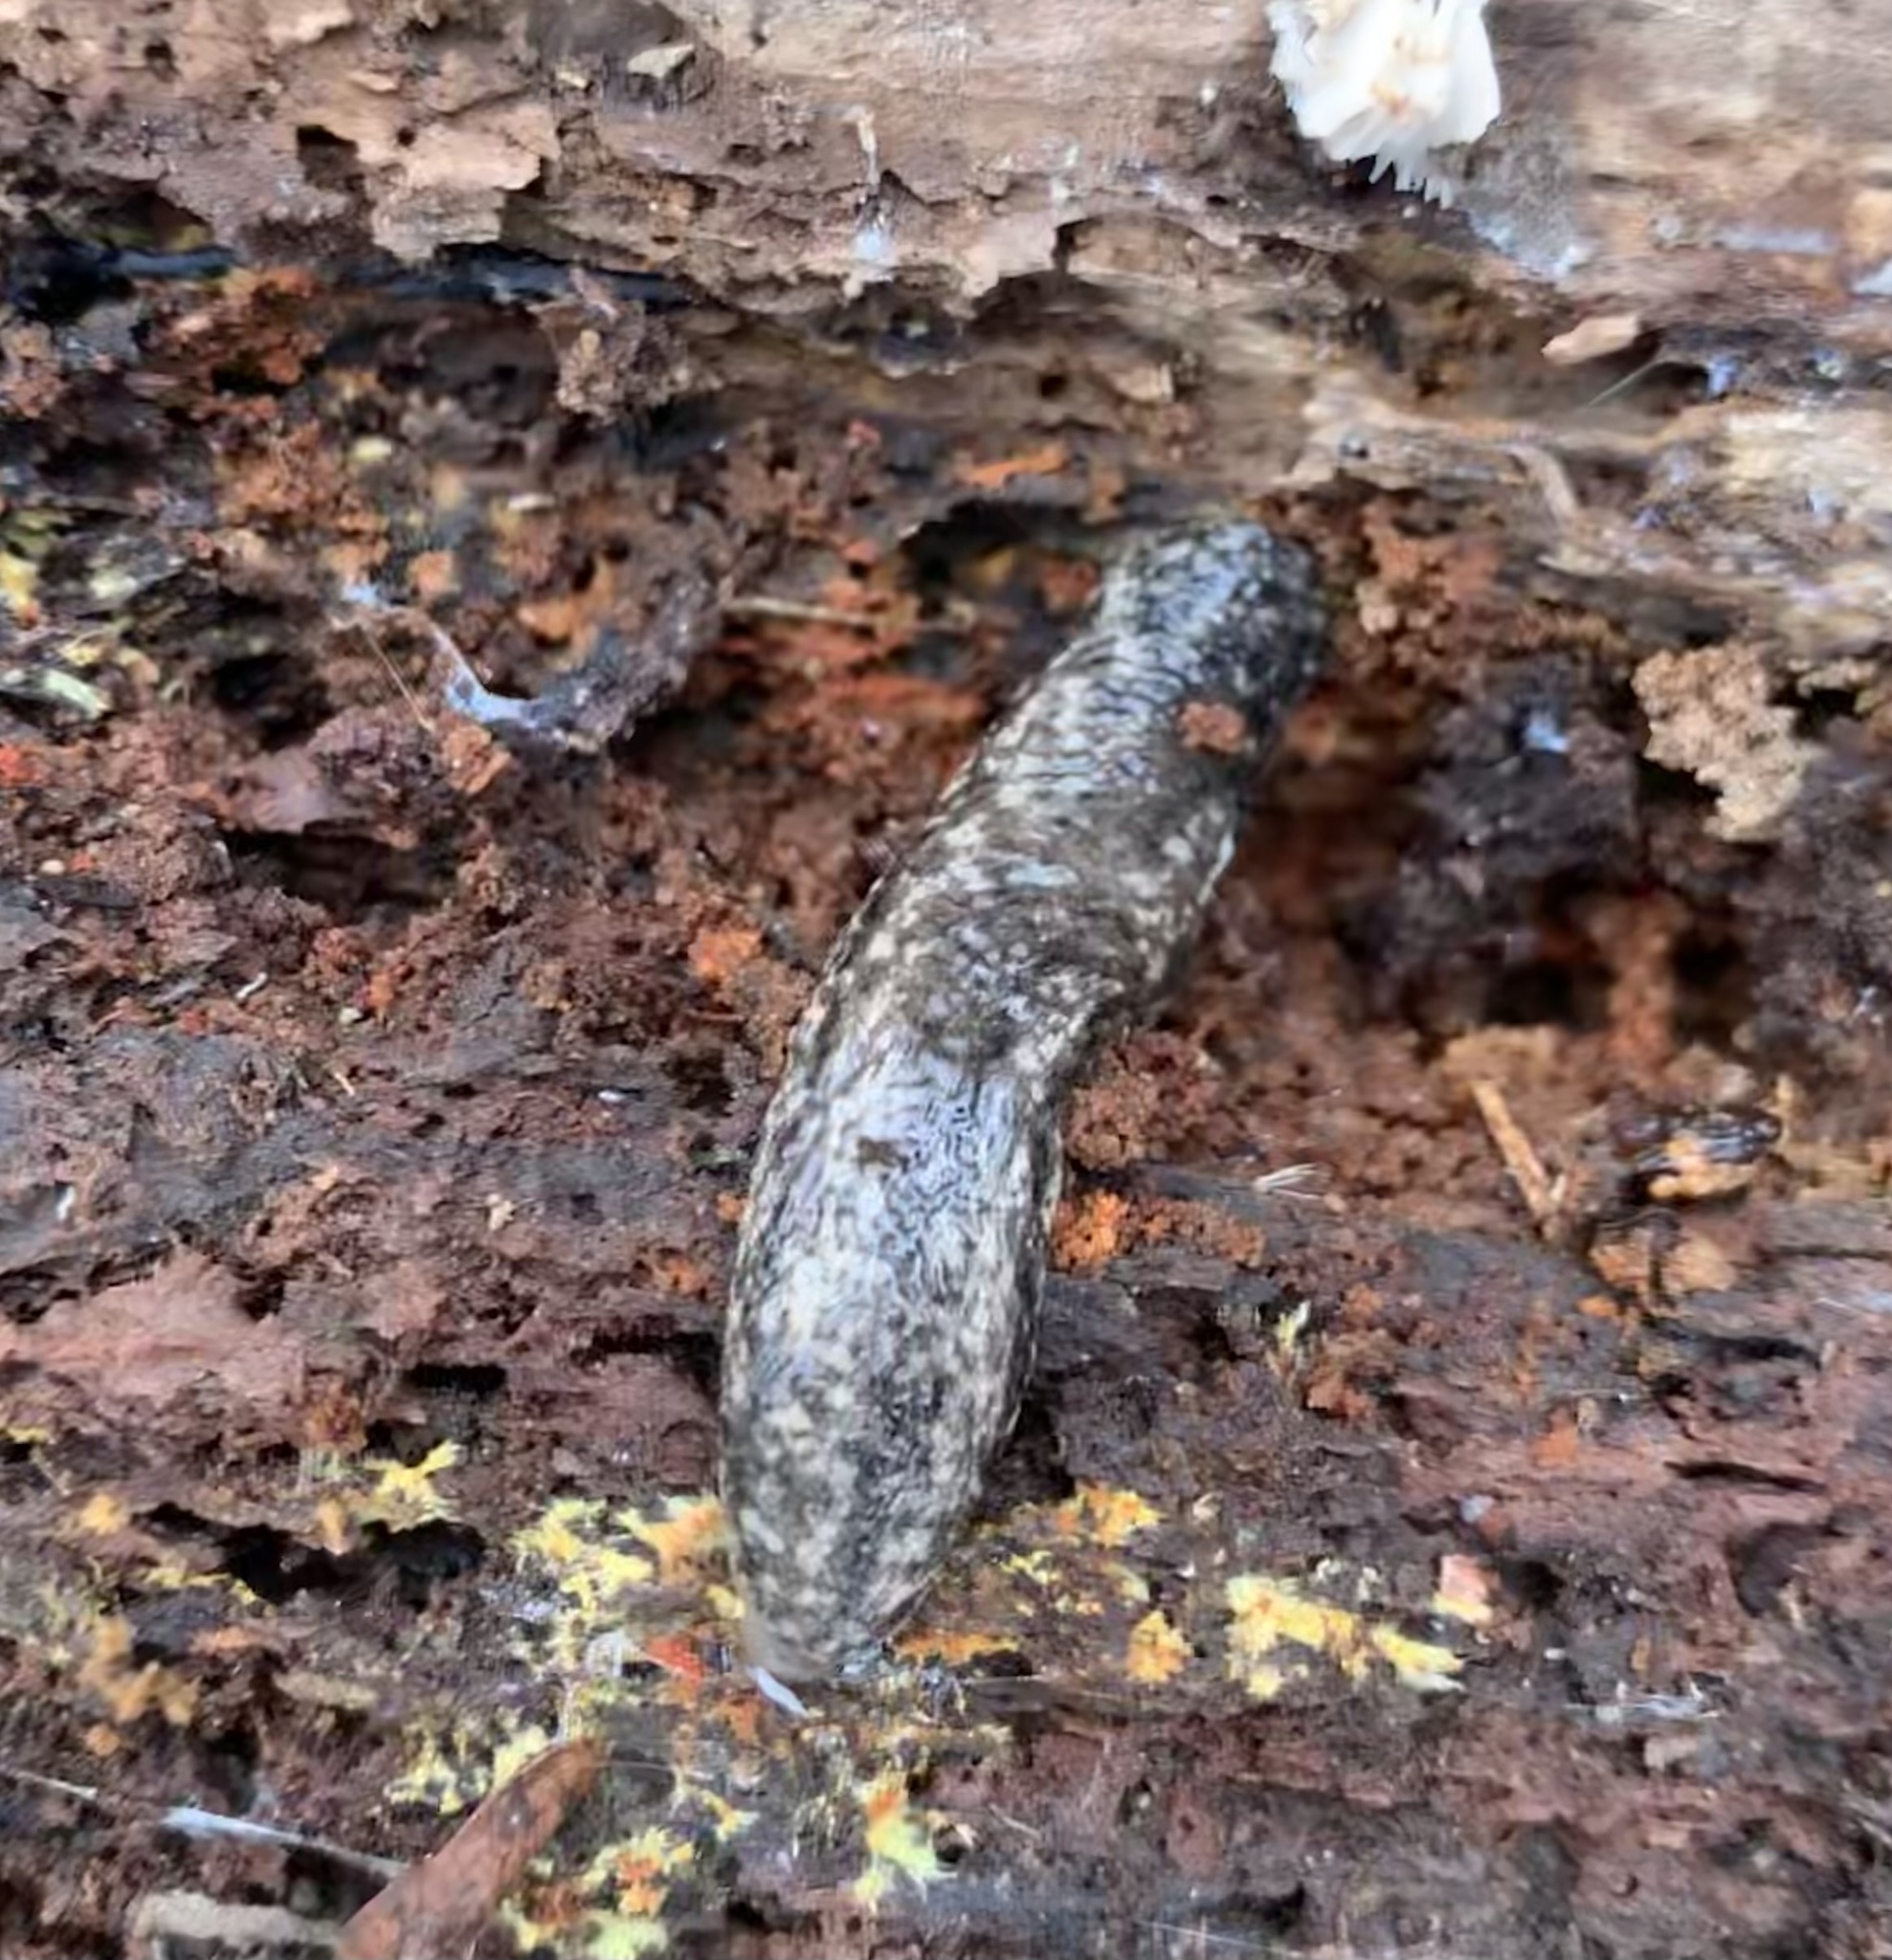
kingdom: Animalia
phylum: Mollusca
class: Gastropoda
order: Stylommatophora
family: Philomycidae
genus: Philomycus
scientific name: Philomycus togatus
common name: Toga mantleslug
